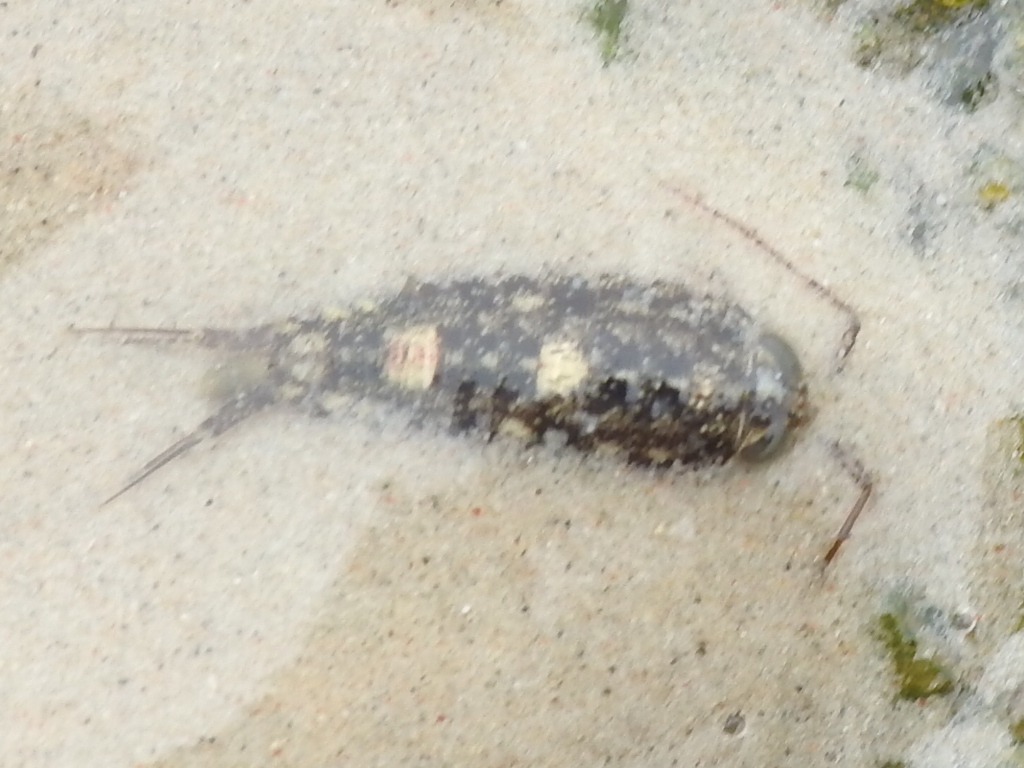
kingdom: Animalia
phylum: Arthropoda
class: Malacostraca
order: Isopoda
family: Ligiidae
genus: Ligia
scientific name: Ligia exotica
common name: Wharf roach
